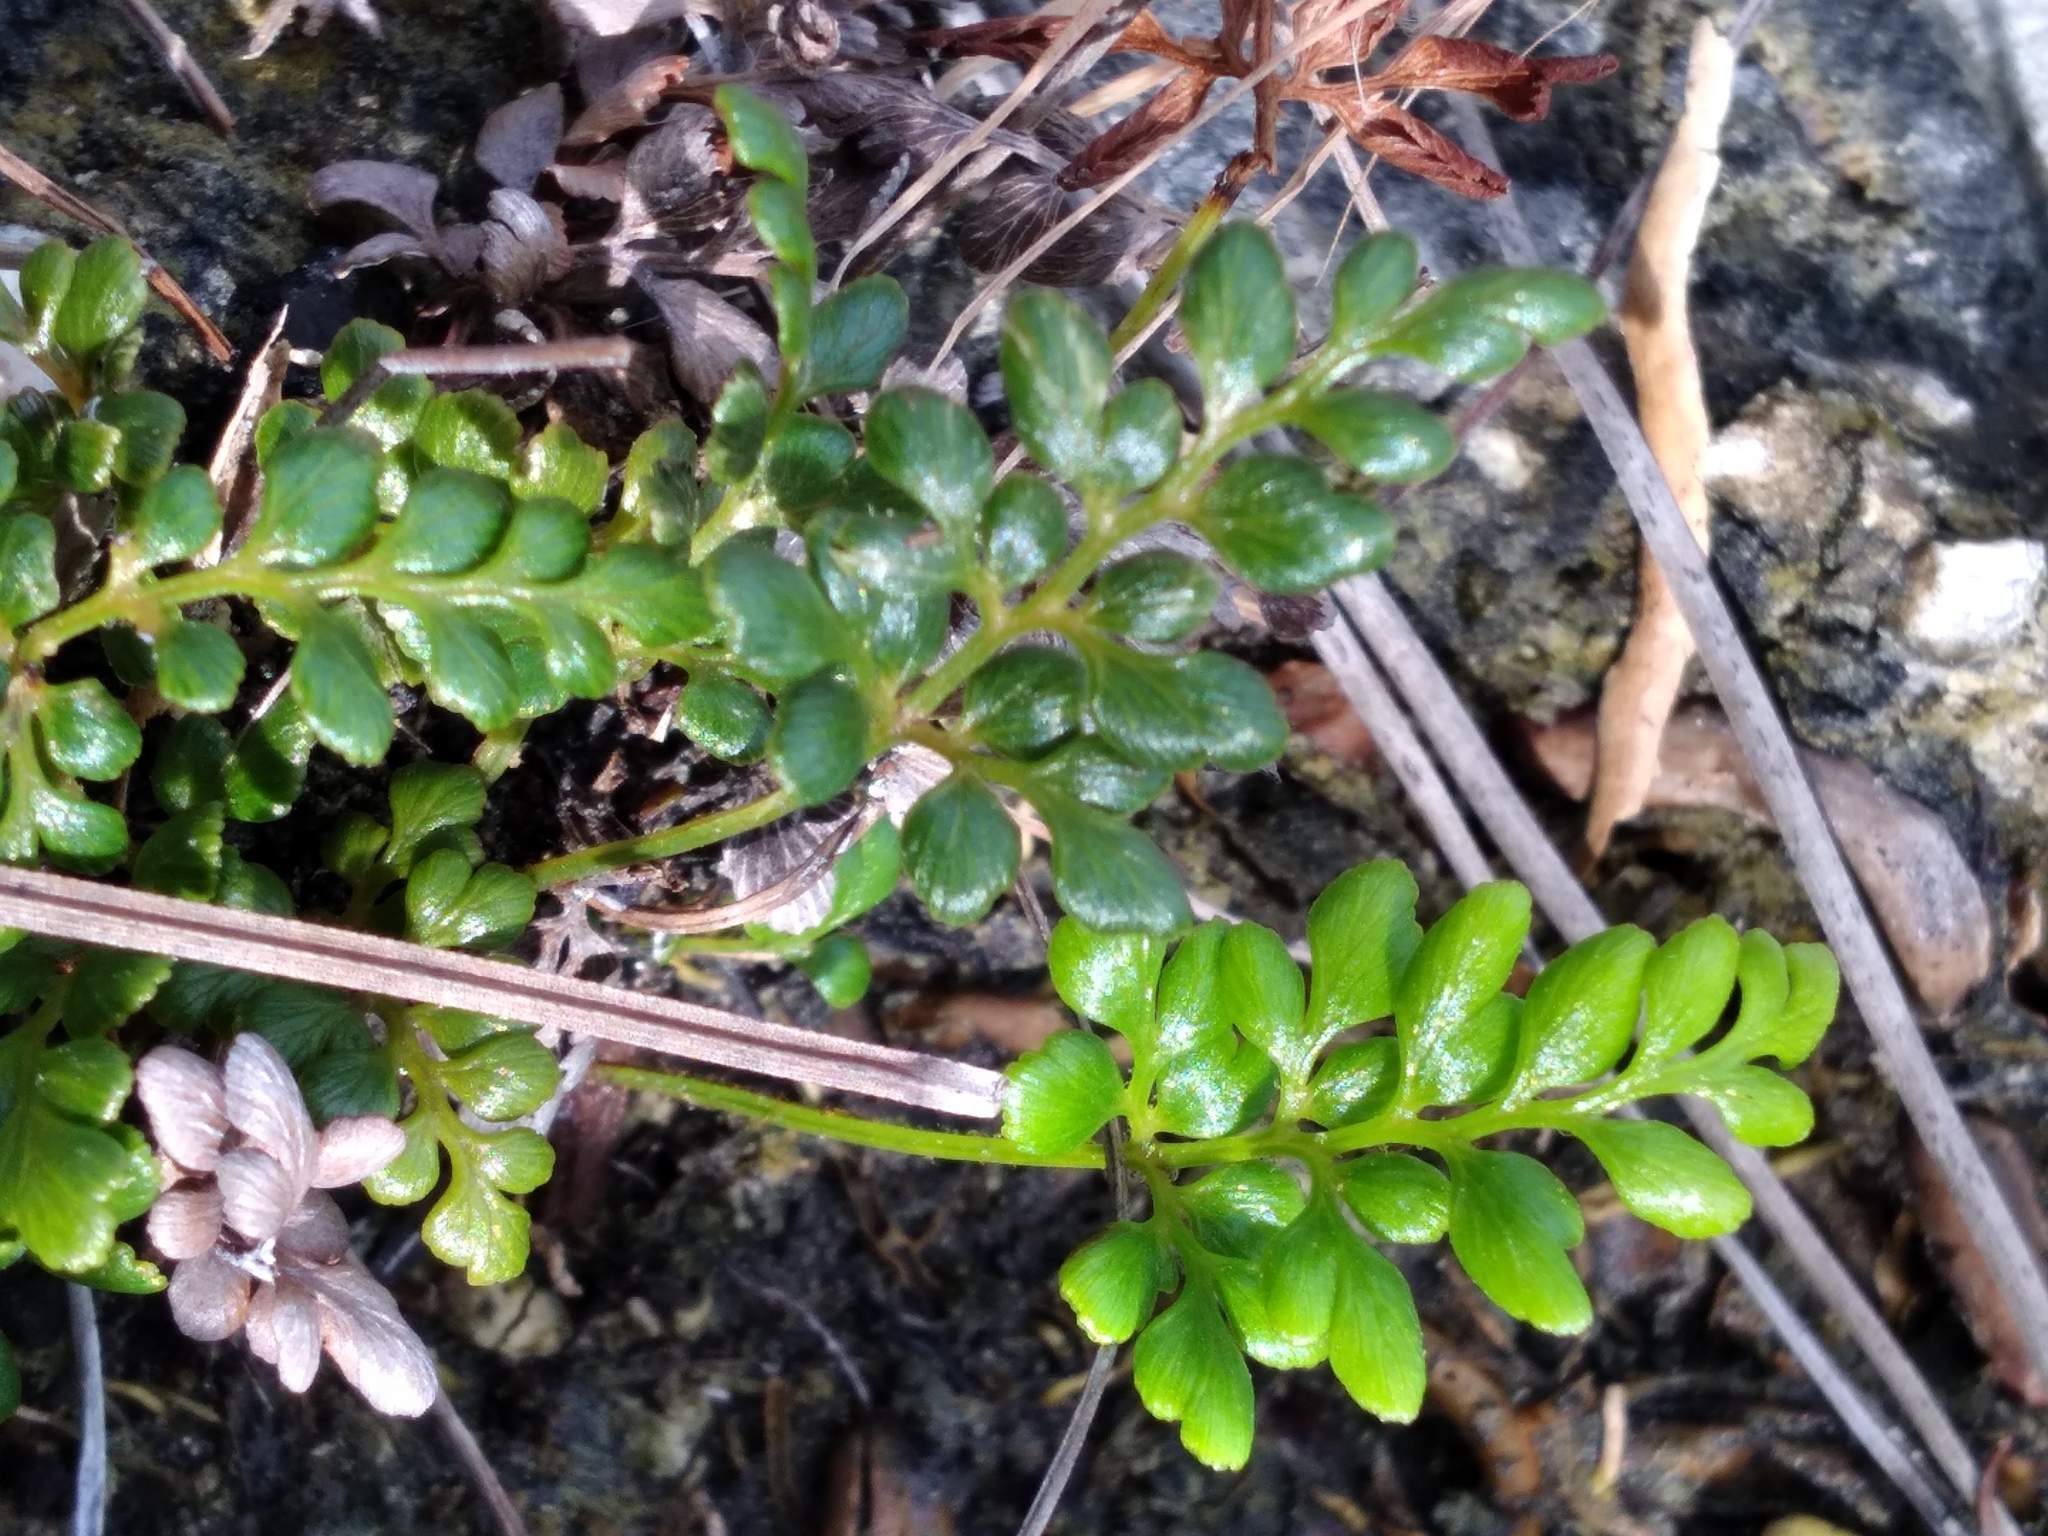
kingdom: Plantae
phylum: Tracheophyta
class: Polypodiopsida
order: Schizaeales
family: Anemiaceae
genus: Anemia
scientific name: Anemia adiantifolia
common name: Pine fern
